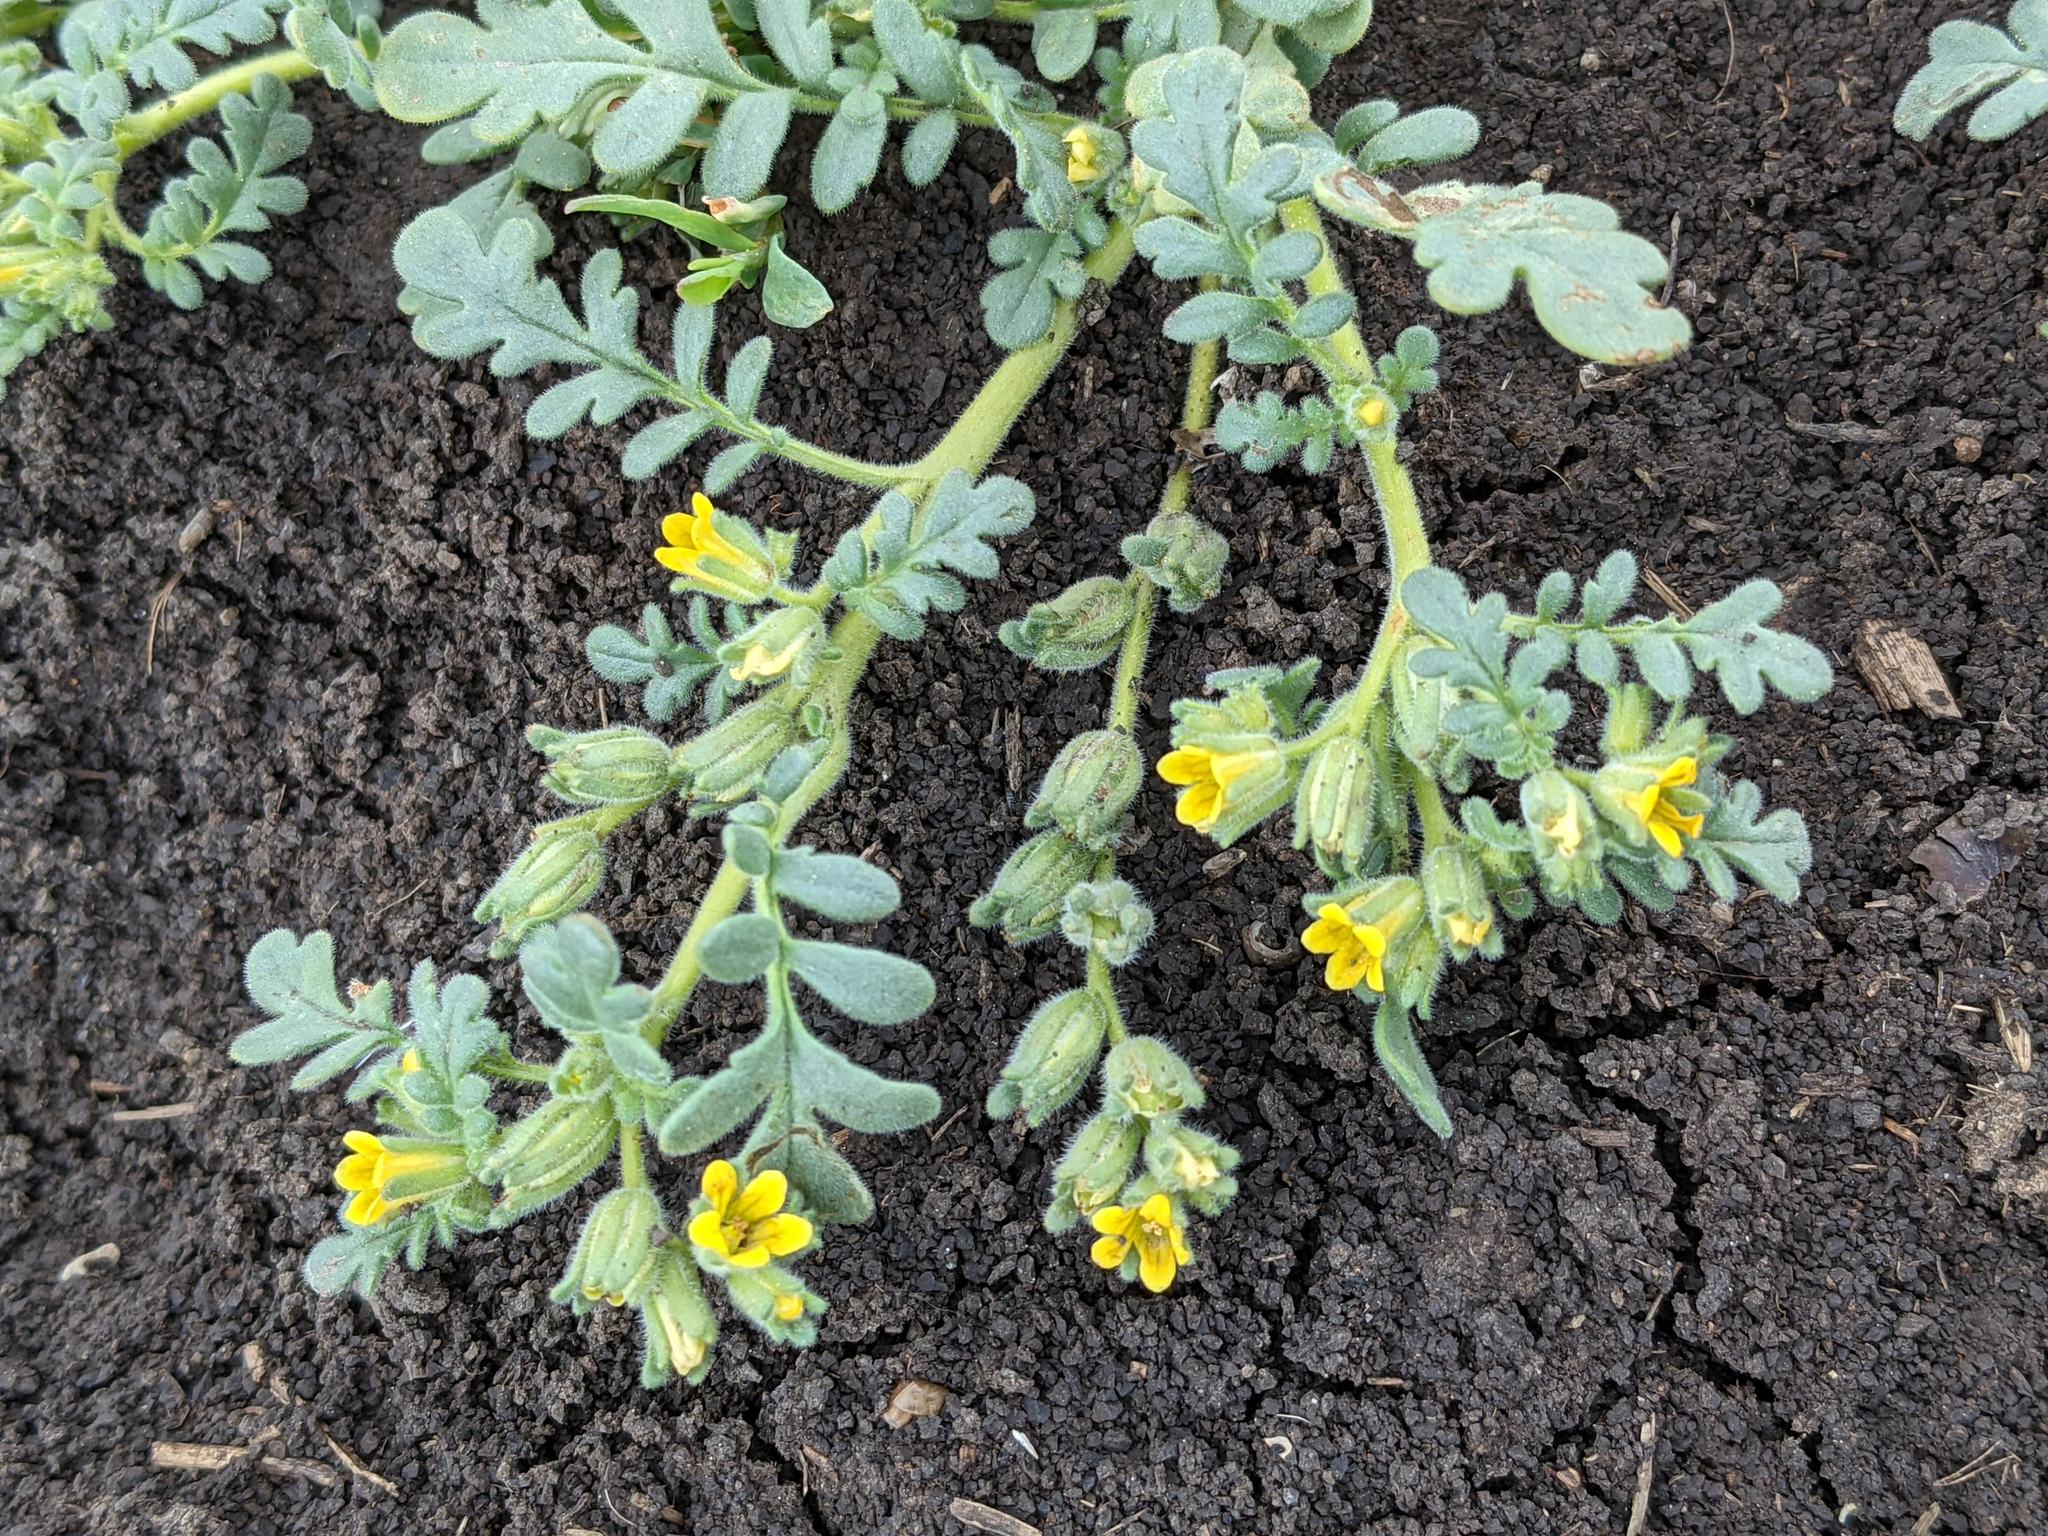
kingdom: Plantae
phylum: Tracheophyta
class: Magnoliopsida
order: Boraginales
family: Hydrophyllaceae
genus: Phacelia
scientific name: Phacelia inundata
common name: Playa phacelia
